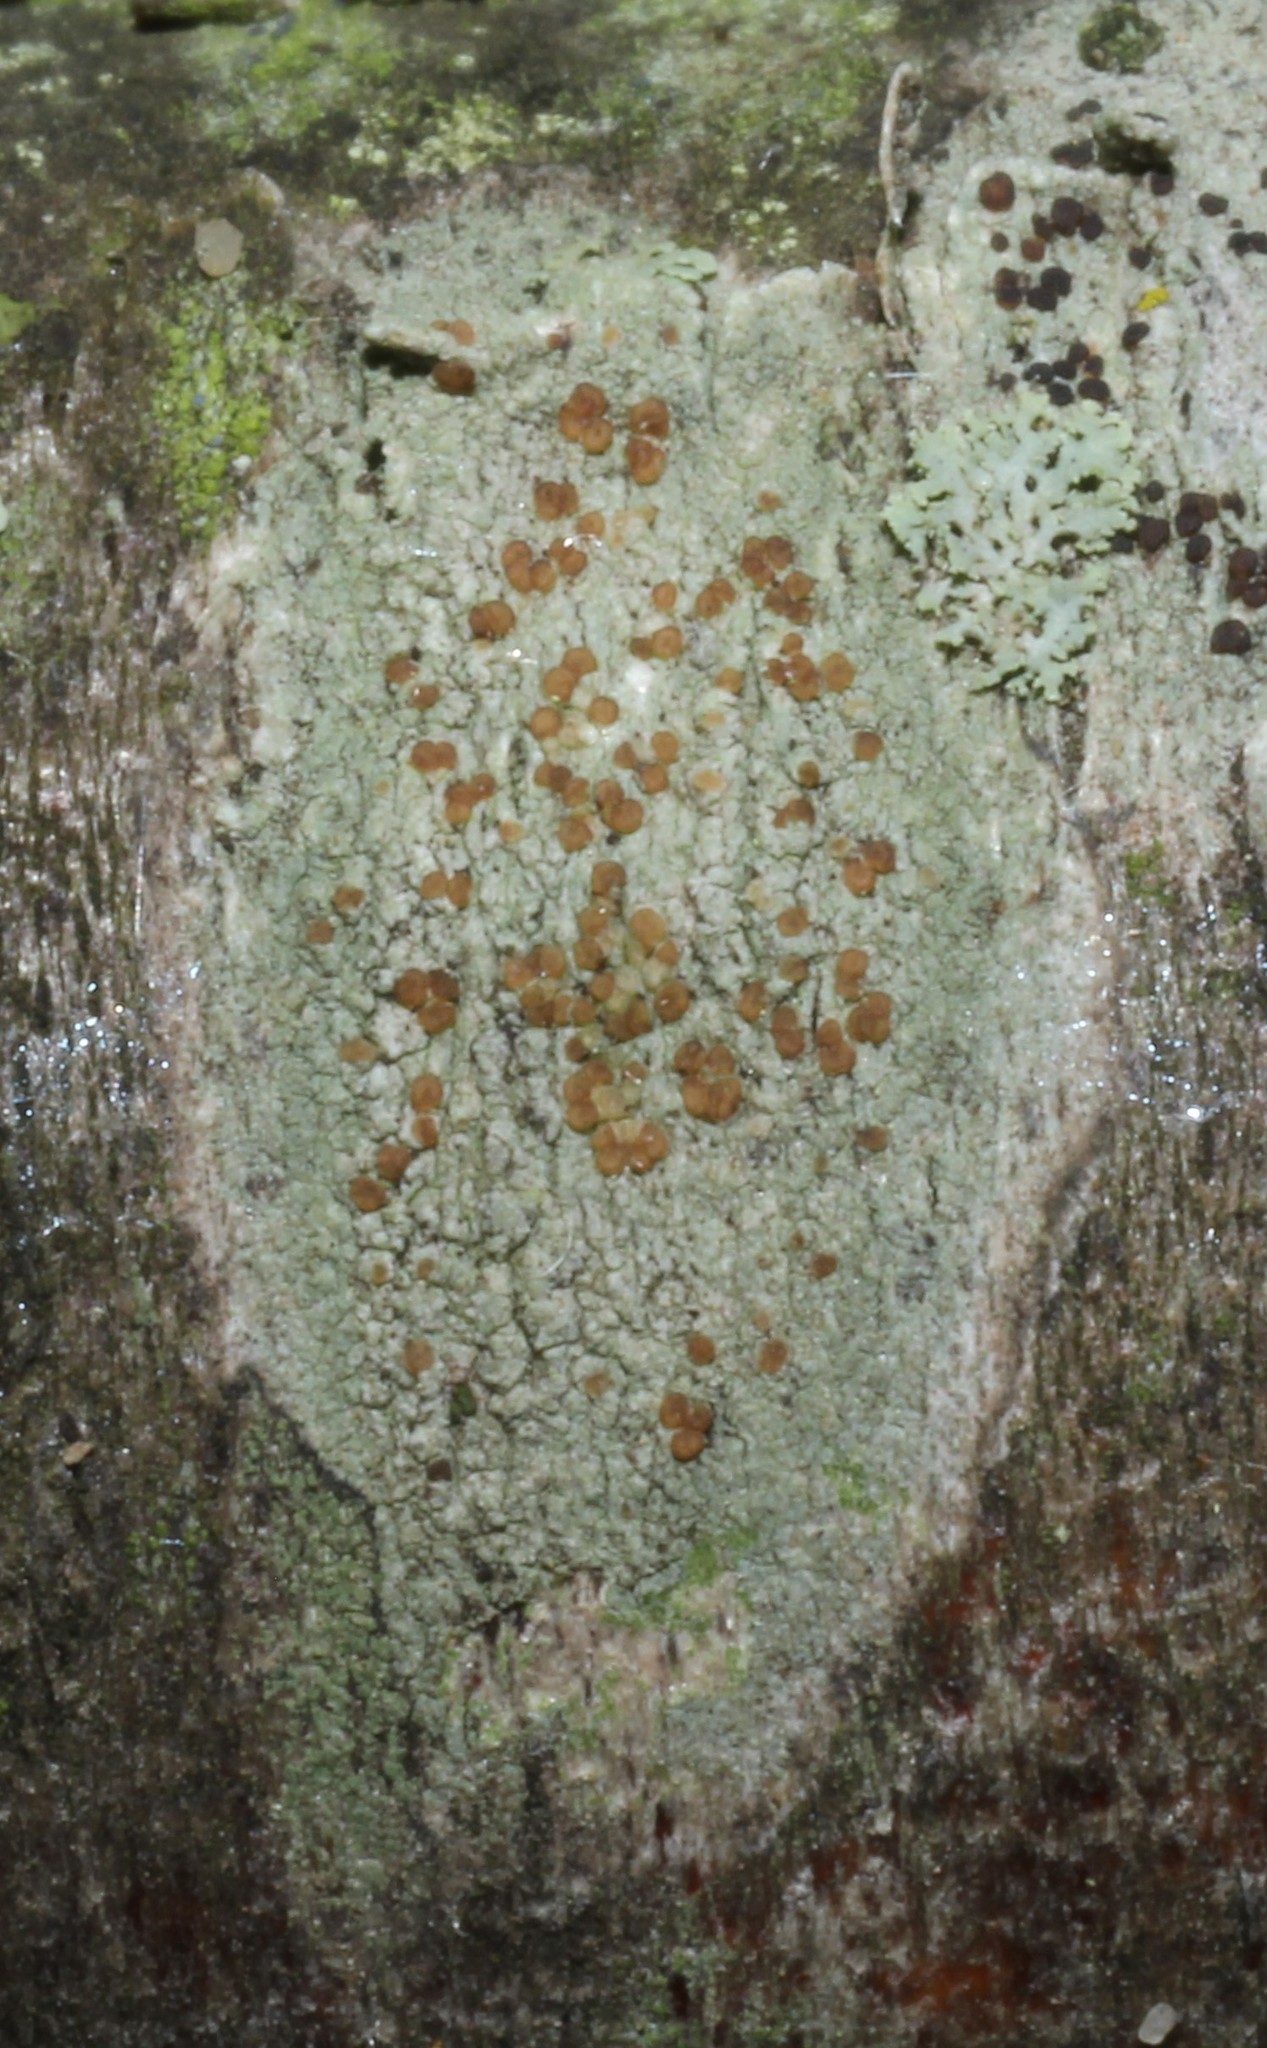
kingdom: Fungi
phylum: Ascomycota
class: Lecanoromycetes
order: Lecanorales
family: Lecanoraceae
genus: Traponora
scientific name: Traponora varians
